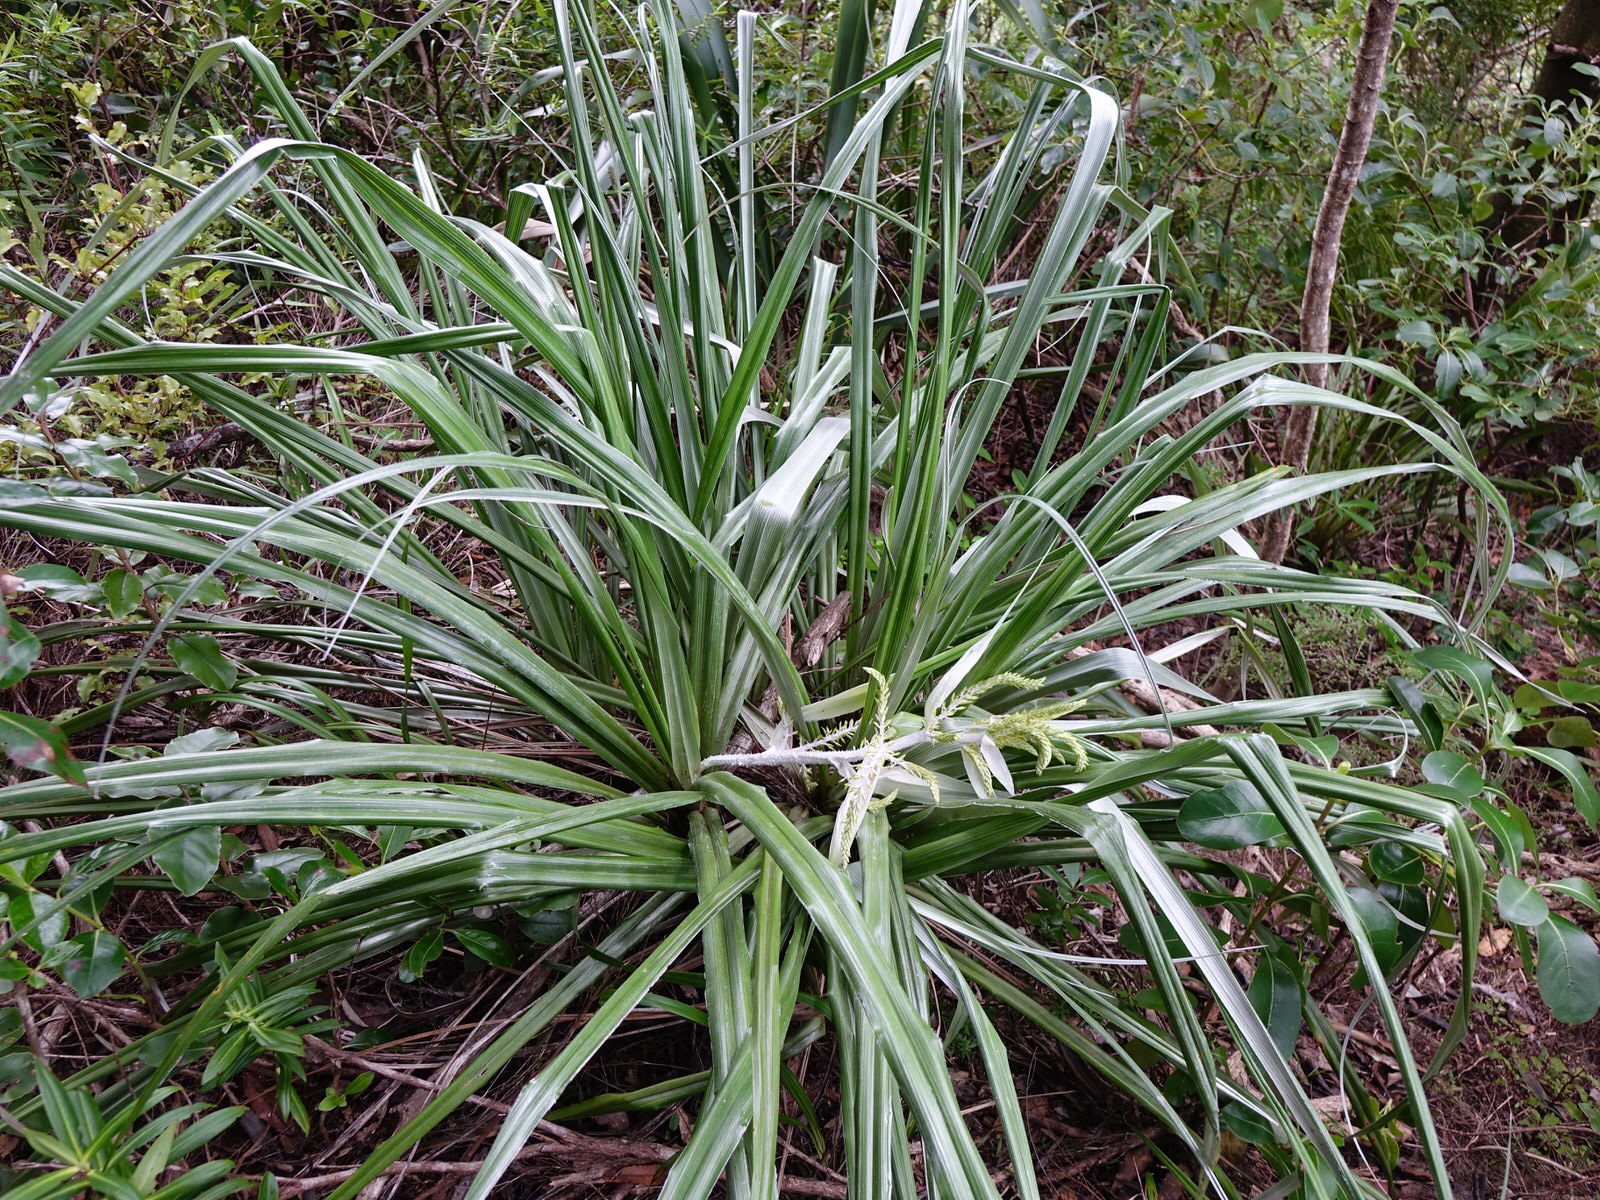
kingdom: Plantae
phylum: Tracheophyta
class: Liliopsida
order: Asparagales
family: Asteliaceae
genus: Astelia
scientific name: Astelia banksii
